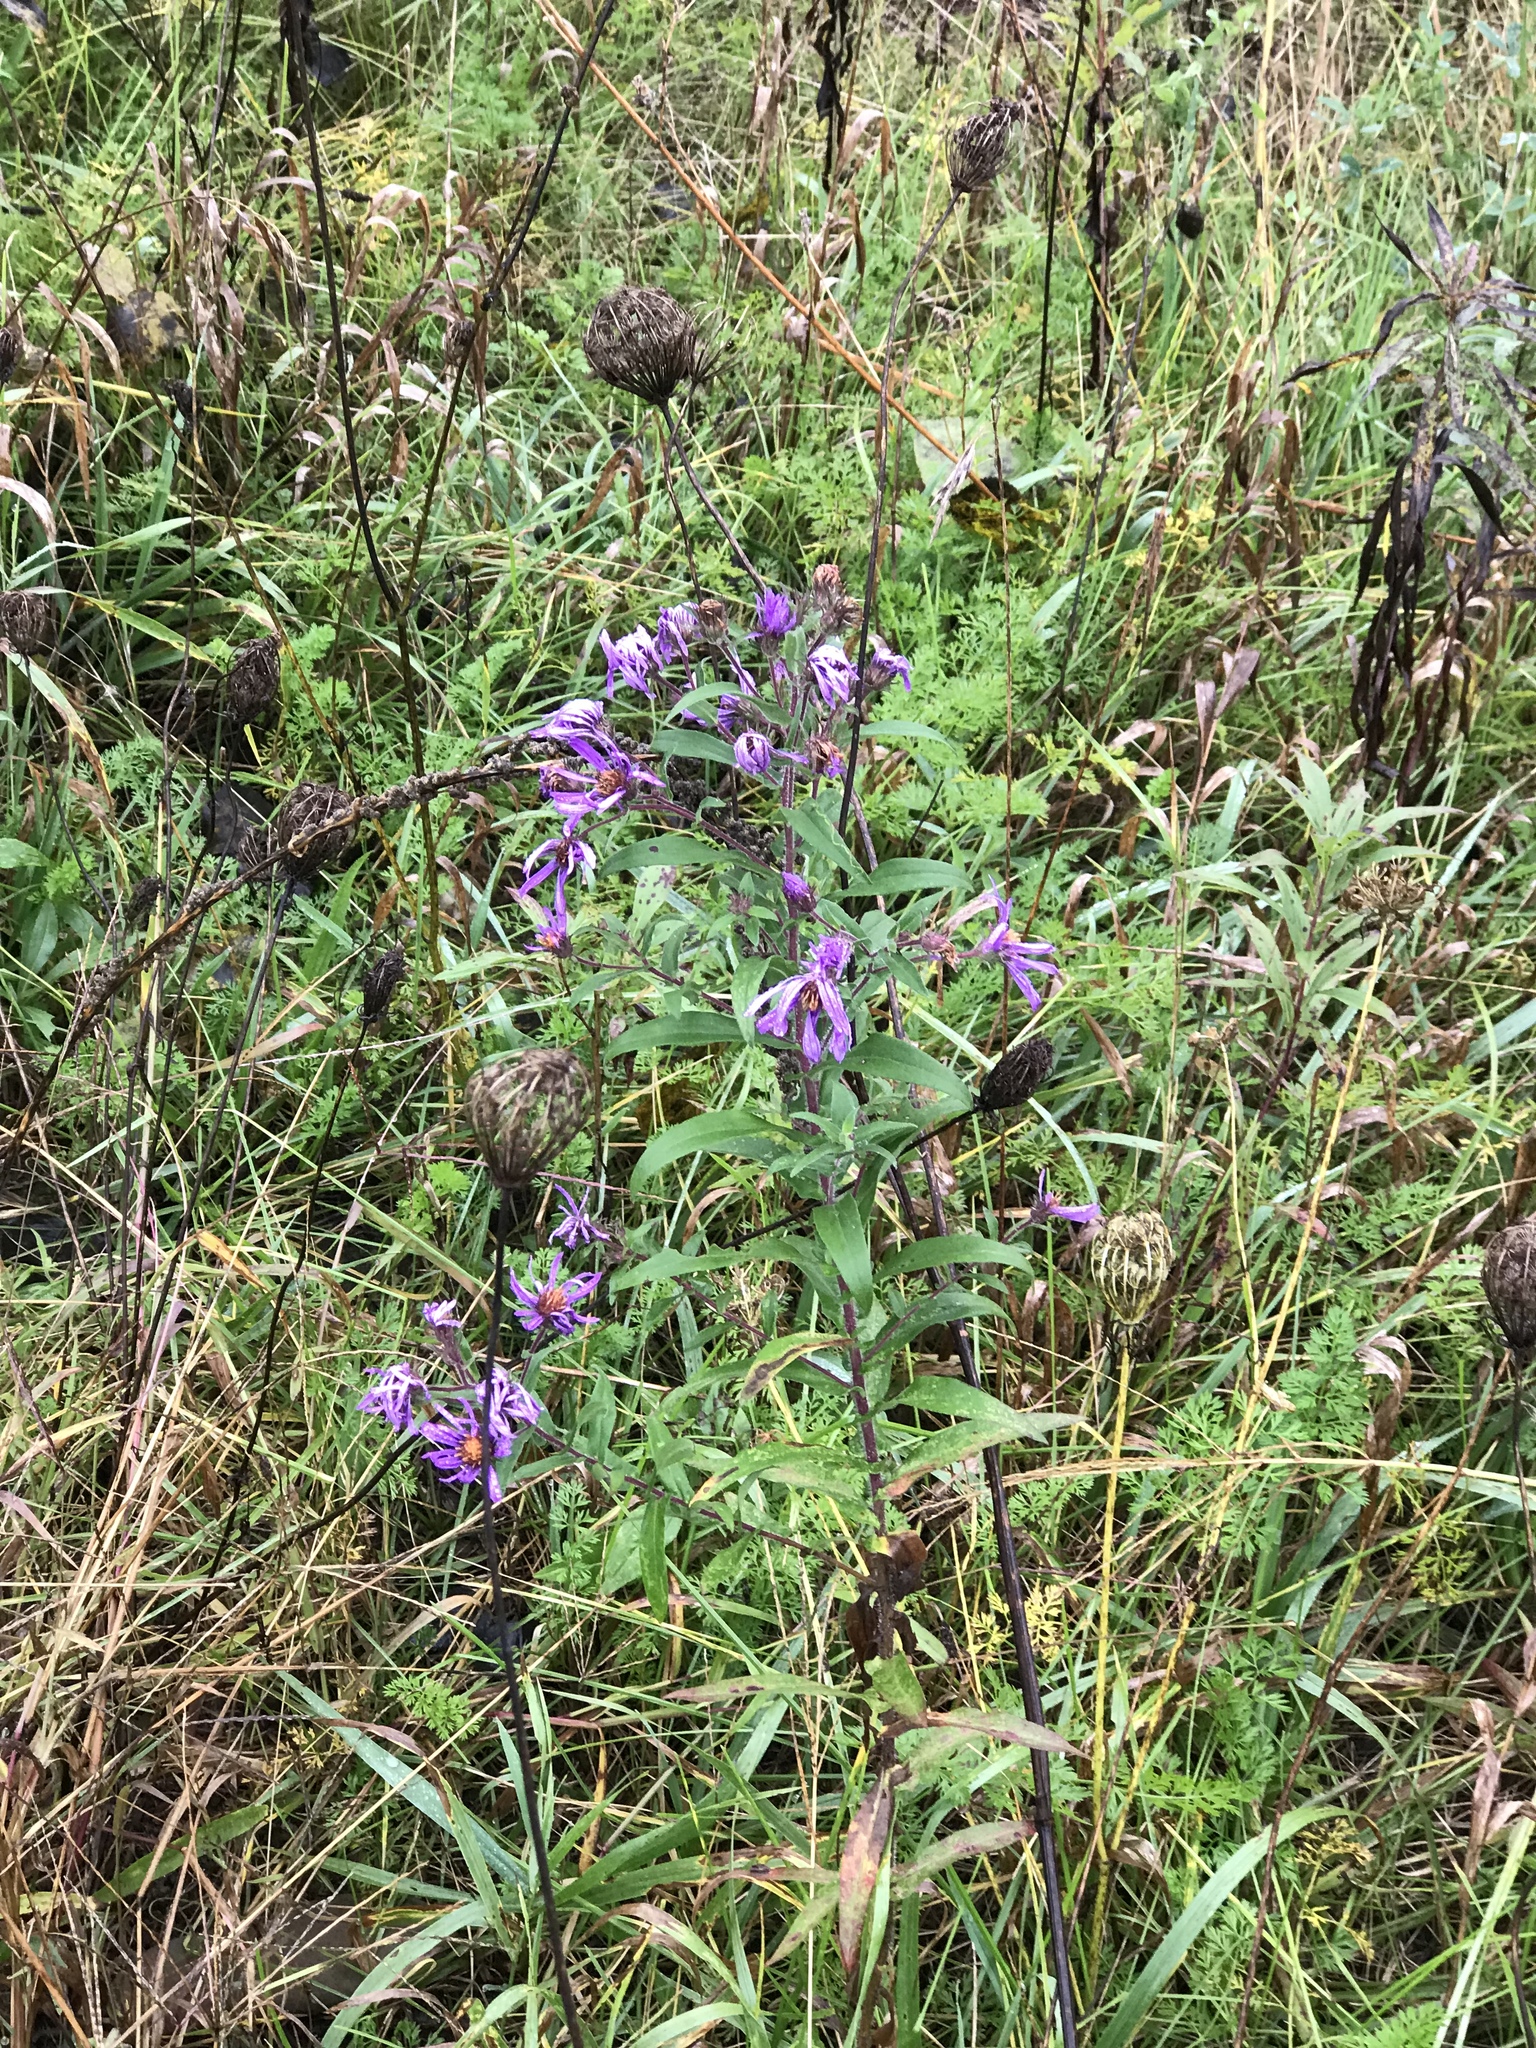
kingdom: Plantae
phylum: Tracheophyta
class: Magnoliopsida
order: Asterales
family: Asteraceae
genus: Symphyotrichum
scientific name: Symphyotrichum novae-angliae
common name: Michaelmas daisy
